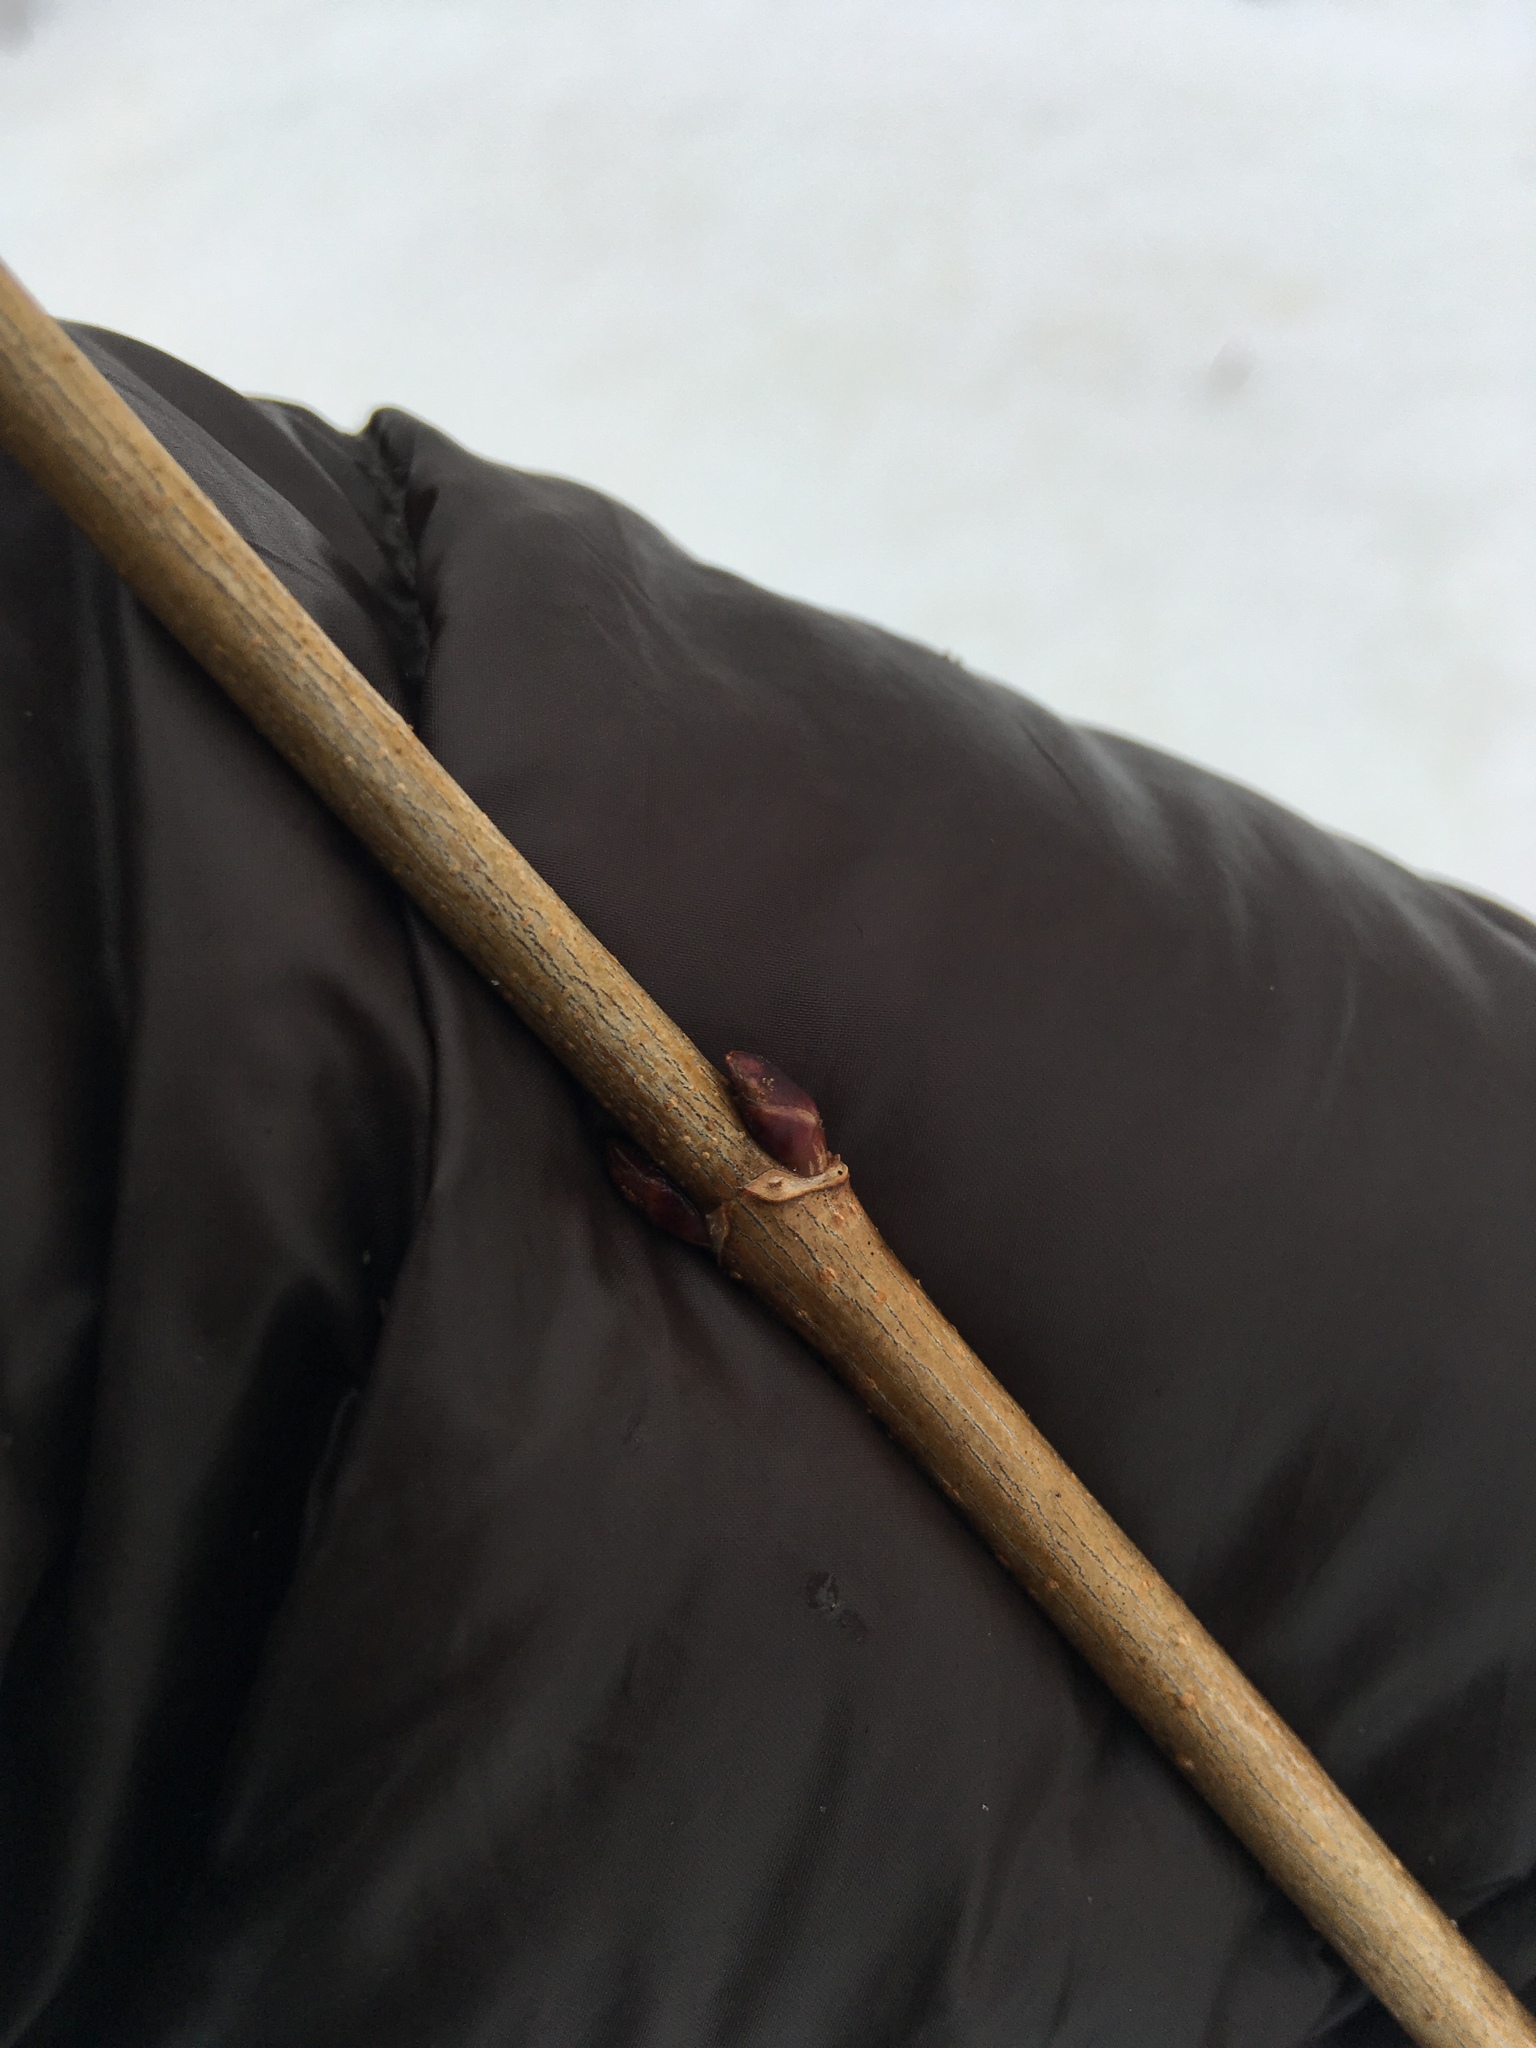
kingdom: Plantae
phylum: Tracheophyta
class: Magnoliopsida
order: Sapindales
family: Sapindaceae
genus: Acer
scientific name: Acer platanoides
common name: Norway maple
